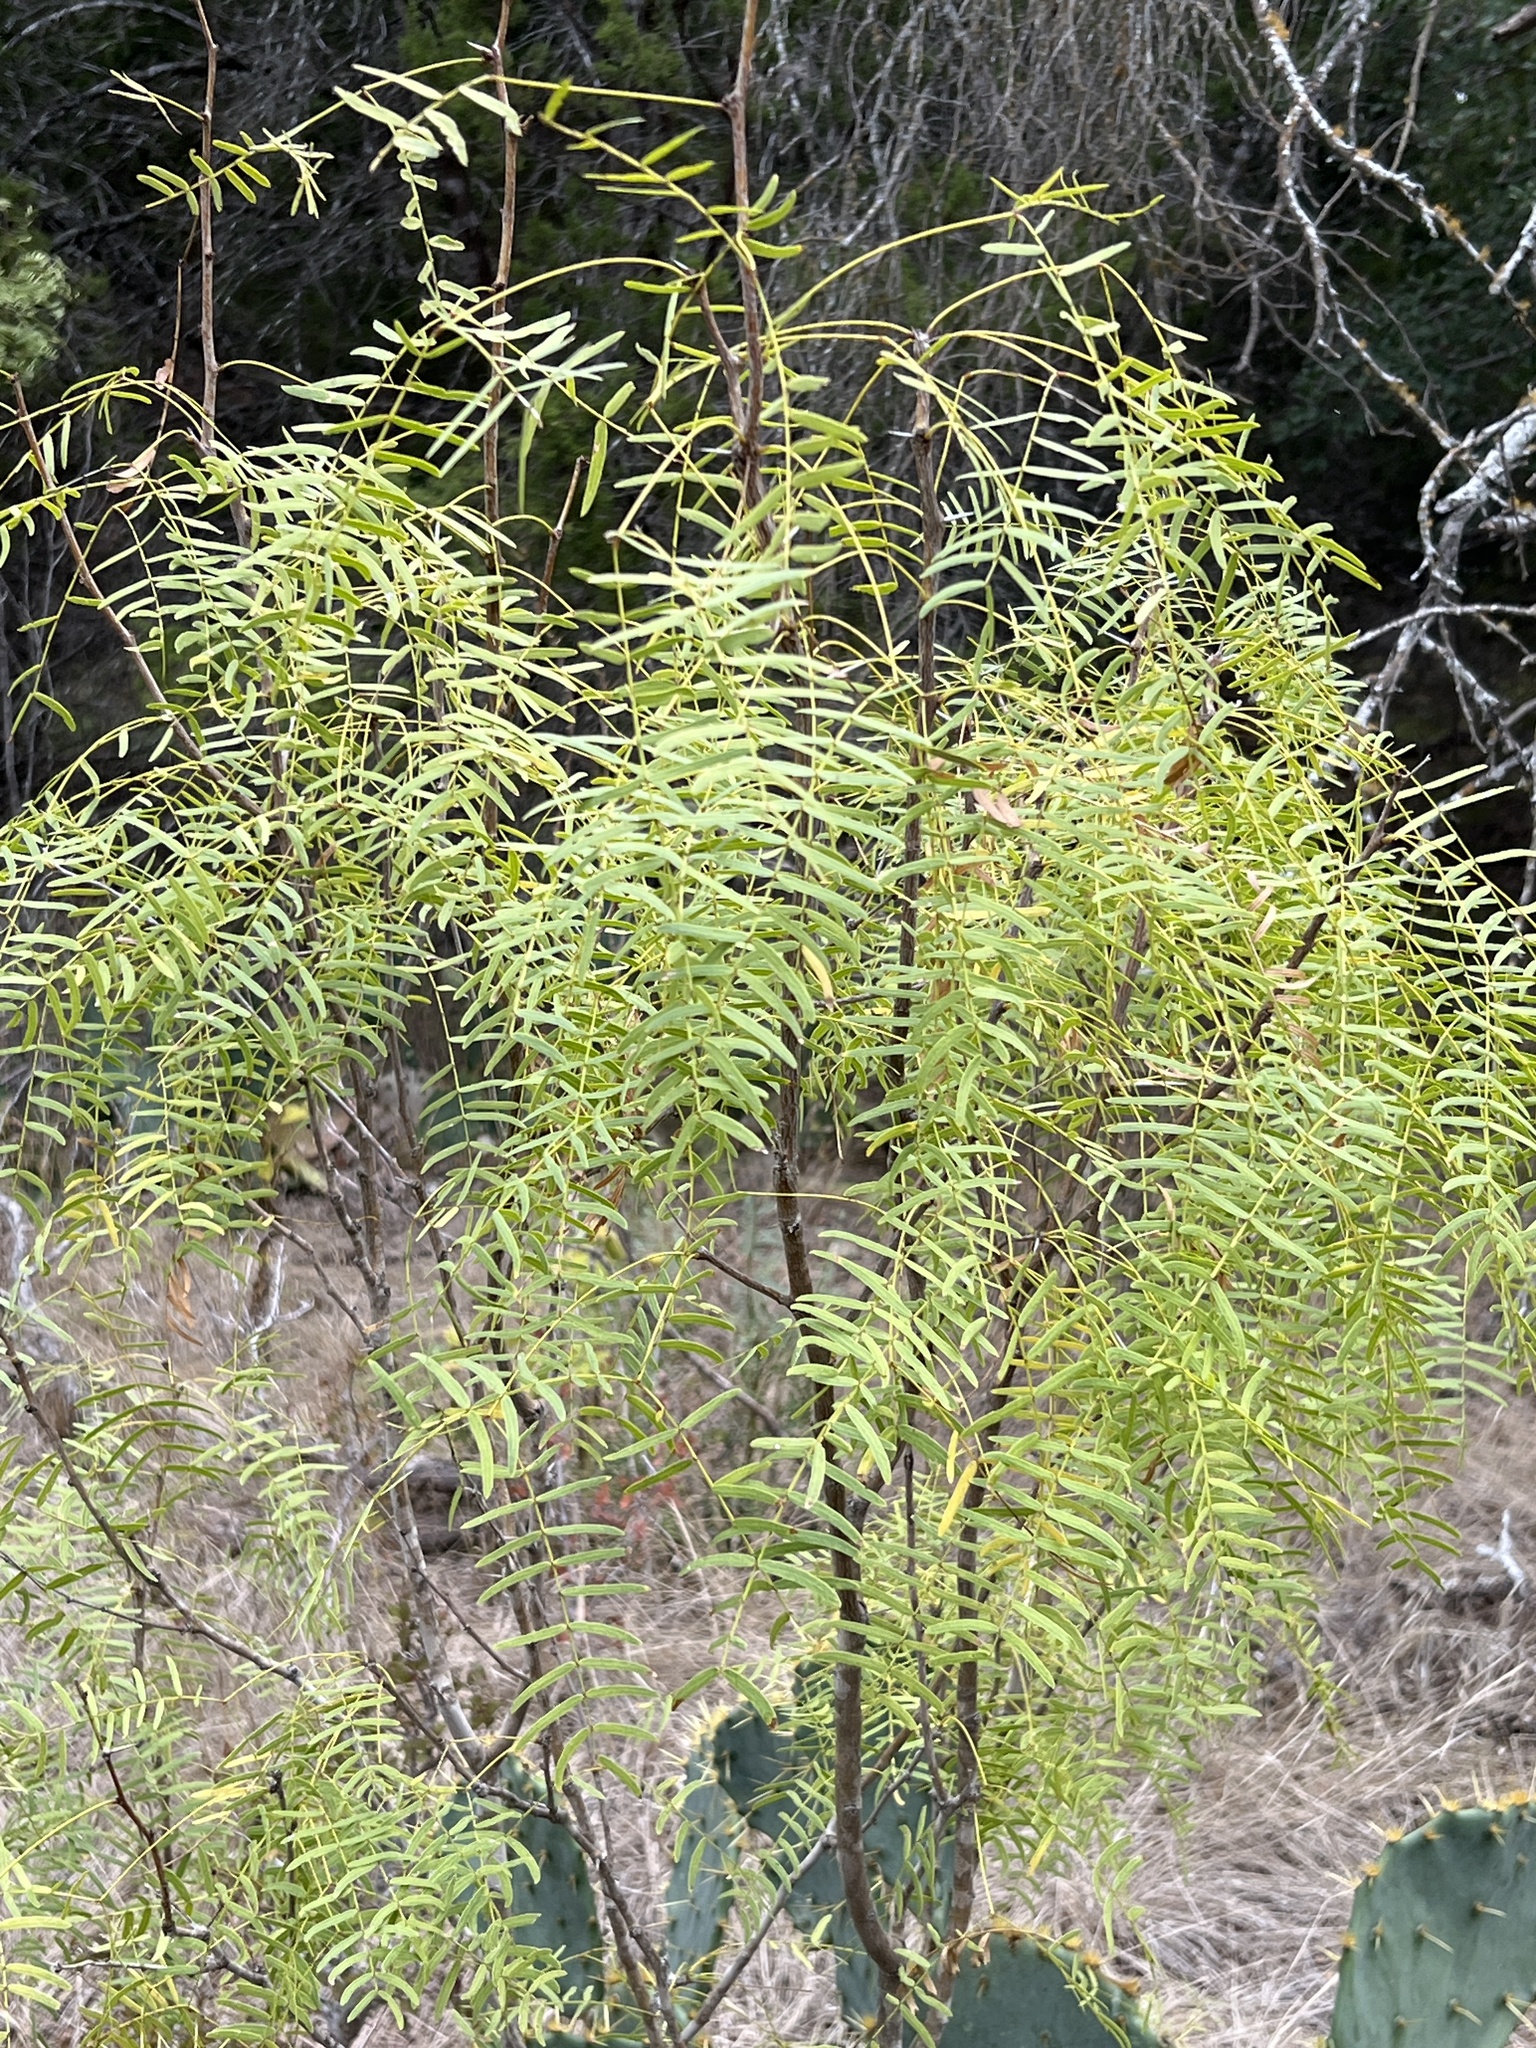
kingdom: Plantae
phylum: Tracheophyta
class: Magnoliopsida
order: Fabales
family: Fabaceae
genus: Prosopis
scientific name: Prosopis glandulosa
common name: Honey mesquite
